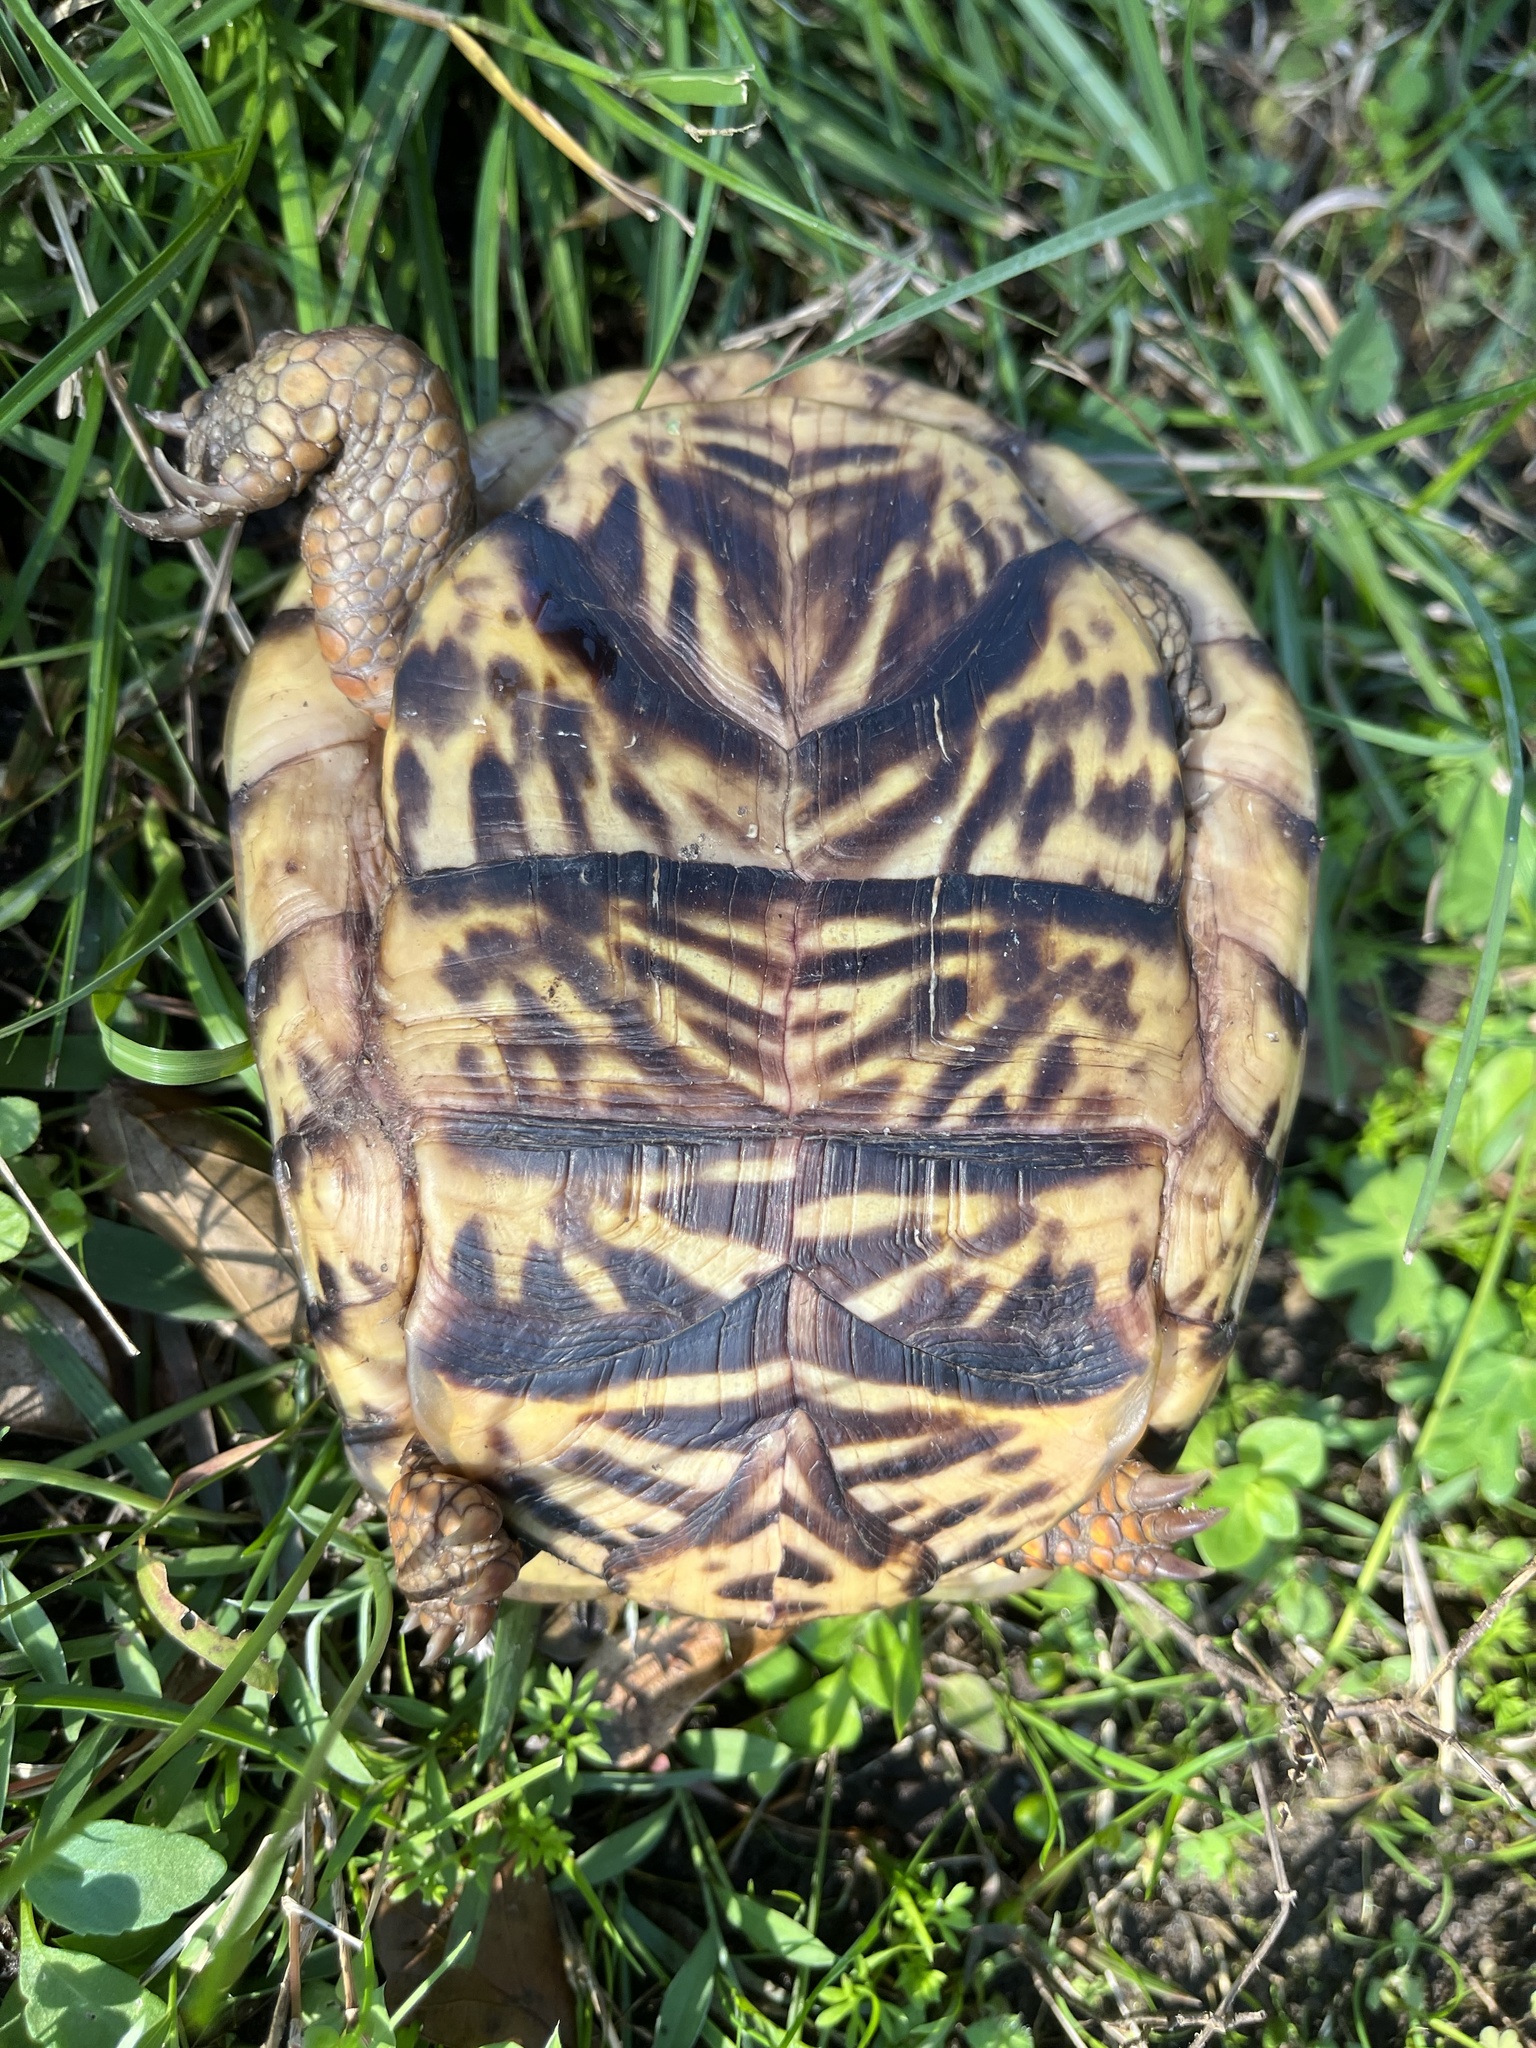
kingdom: Animalia
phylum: Chordata
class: Testudines
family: Emydidae
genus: Terrapene
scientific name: Terrapene carolina
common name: Common box turtle
